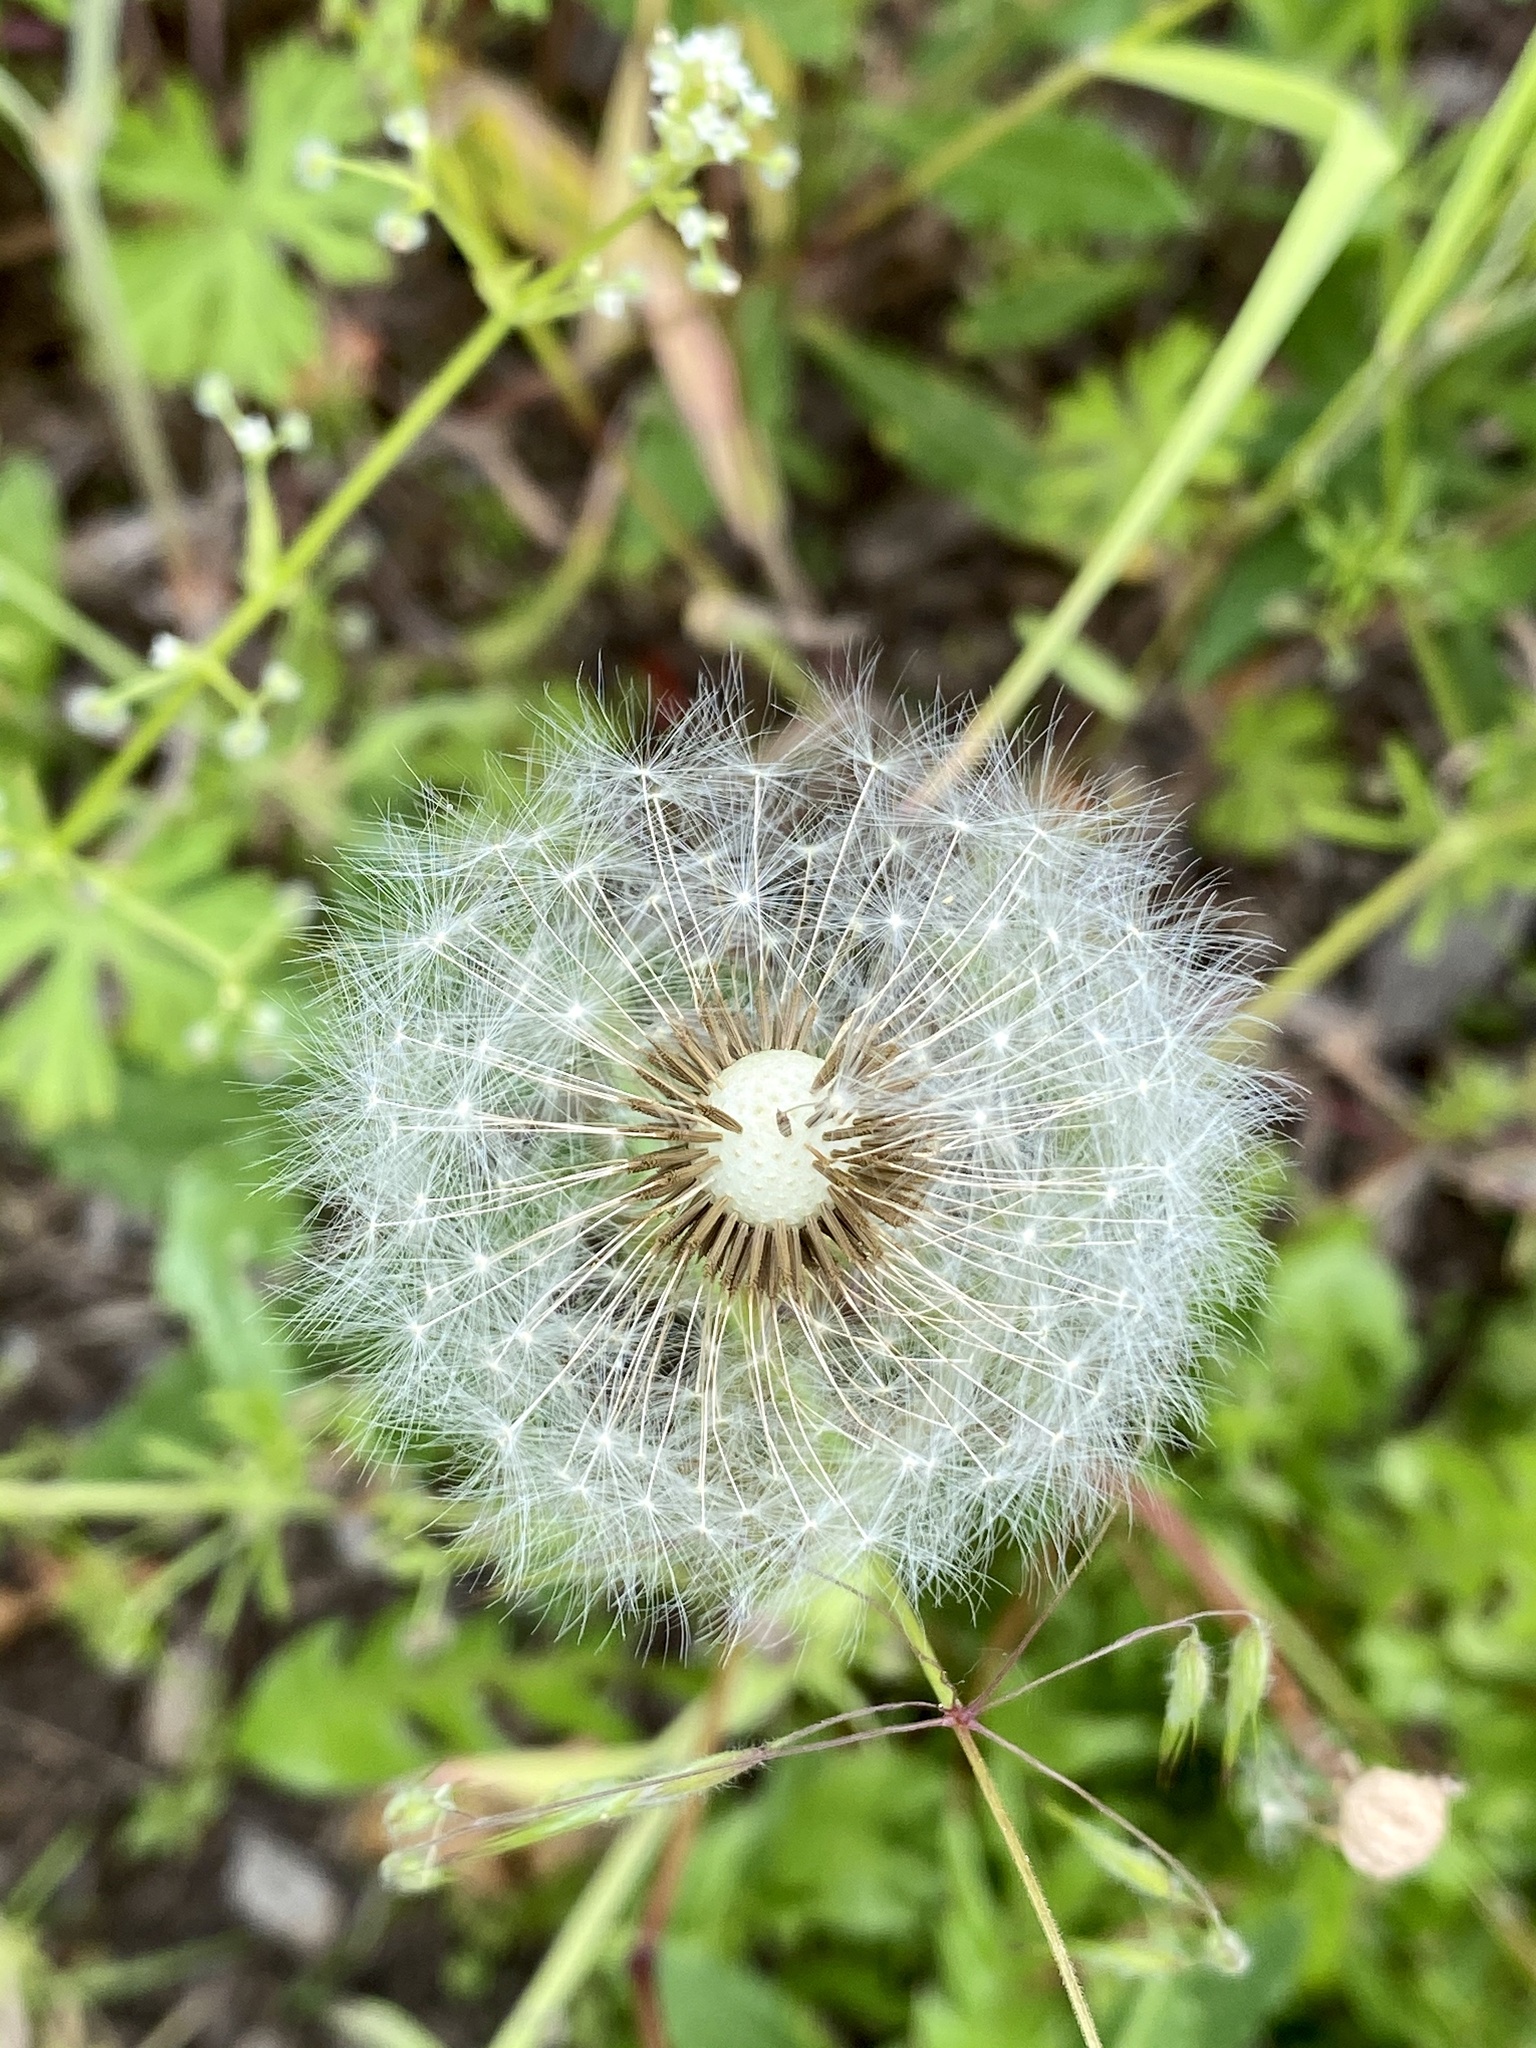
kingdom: Plantae
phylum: Tracheophyta
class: Magnoliopsida
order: Asterales
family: Asteraceae
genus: Taraxacum
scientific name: Taraxacum officinale
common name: Common dandelion
